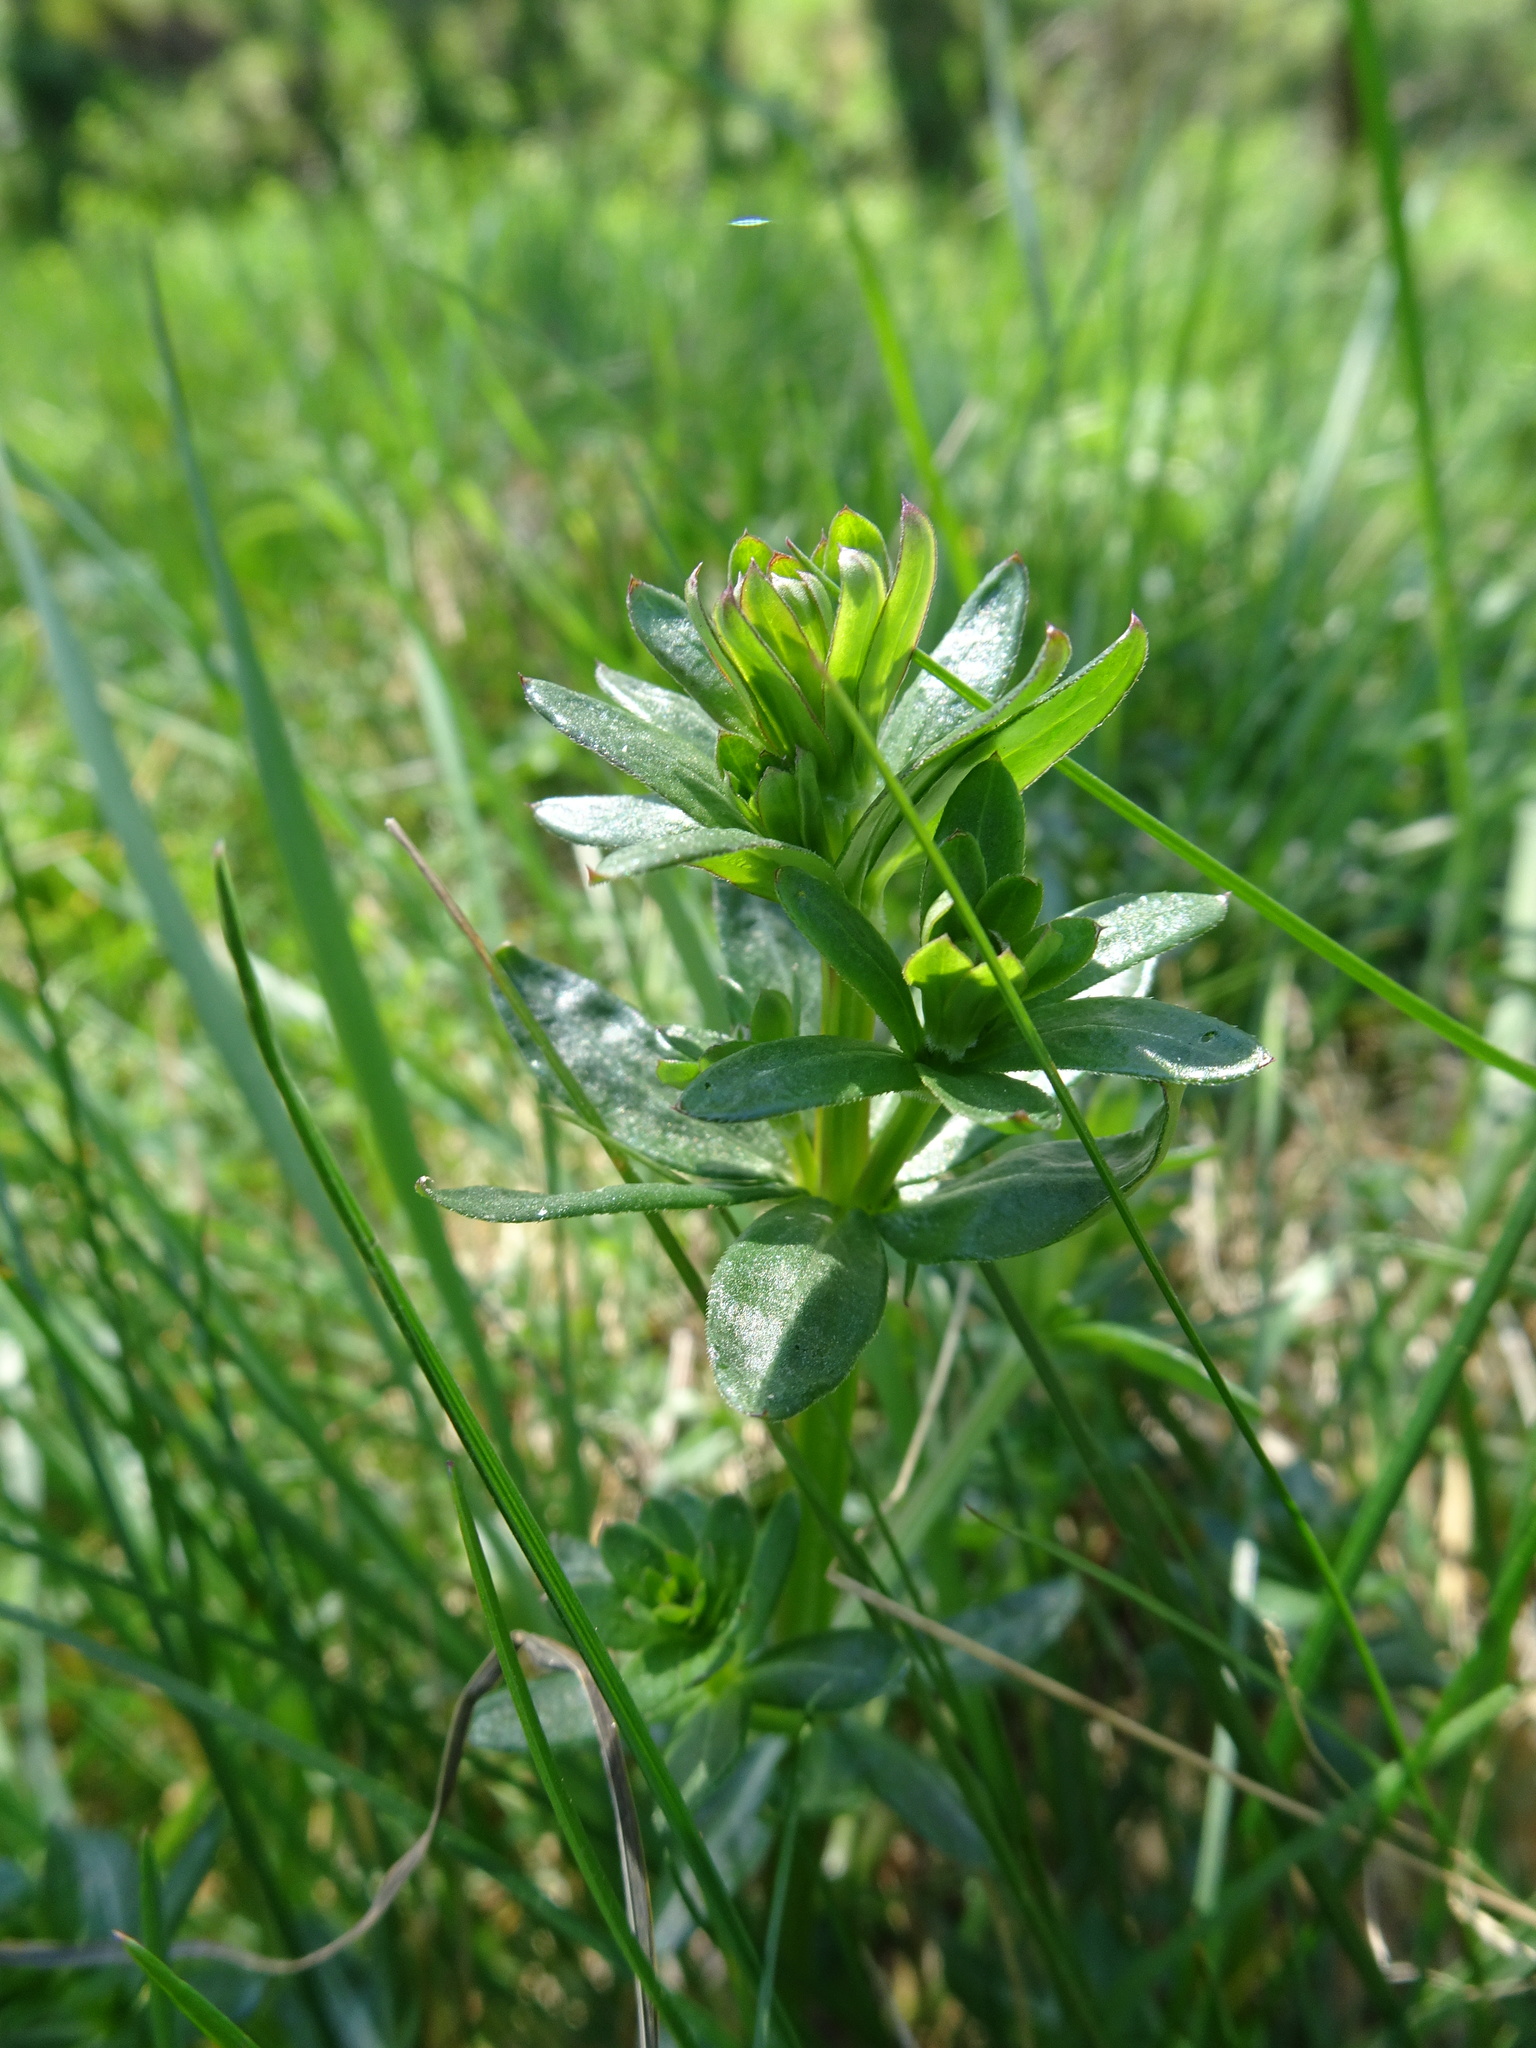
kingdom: Plantae
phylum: Tracheophyta
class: Magnoliopsida
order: Gentianales
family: Rubiaceae
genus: Galium
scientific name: Galium album
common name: White bedstraw
